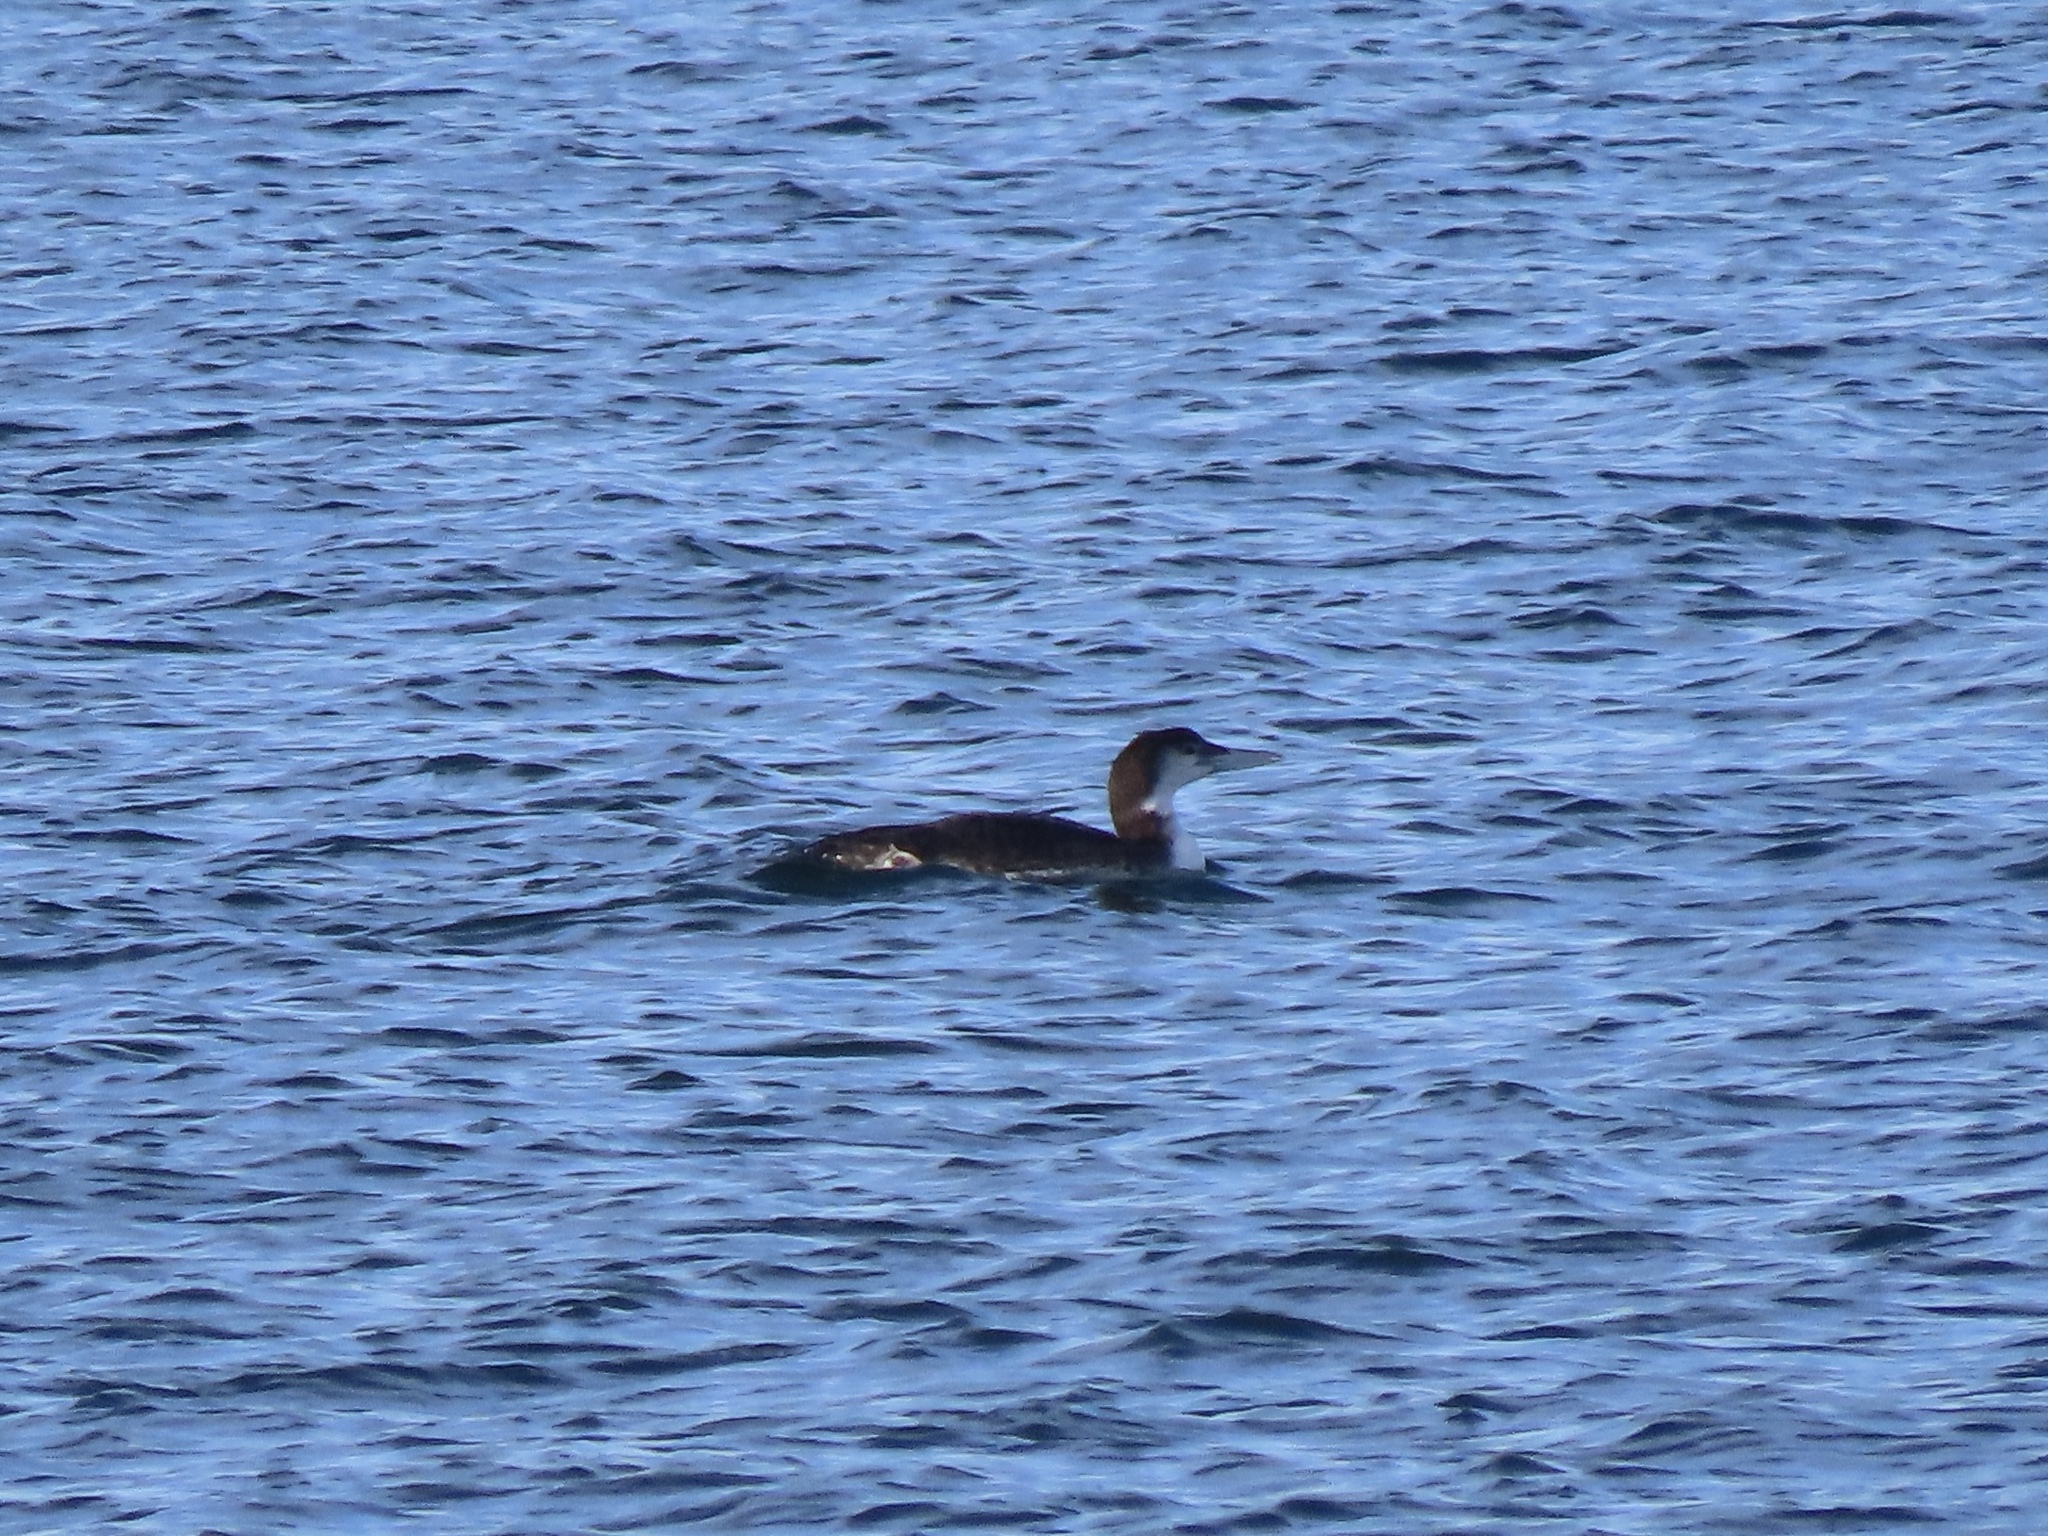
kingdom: Animalia
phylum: Chordata
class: Aves
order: Gaviiformes
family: Gaviidae
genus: Gavia
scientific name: Gavia immer
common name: Common loon
